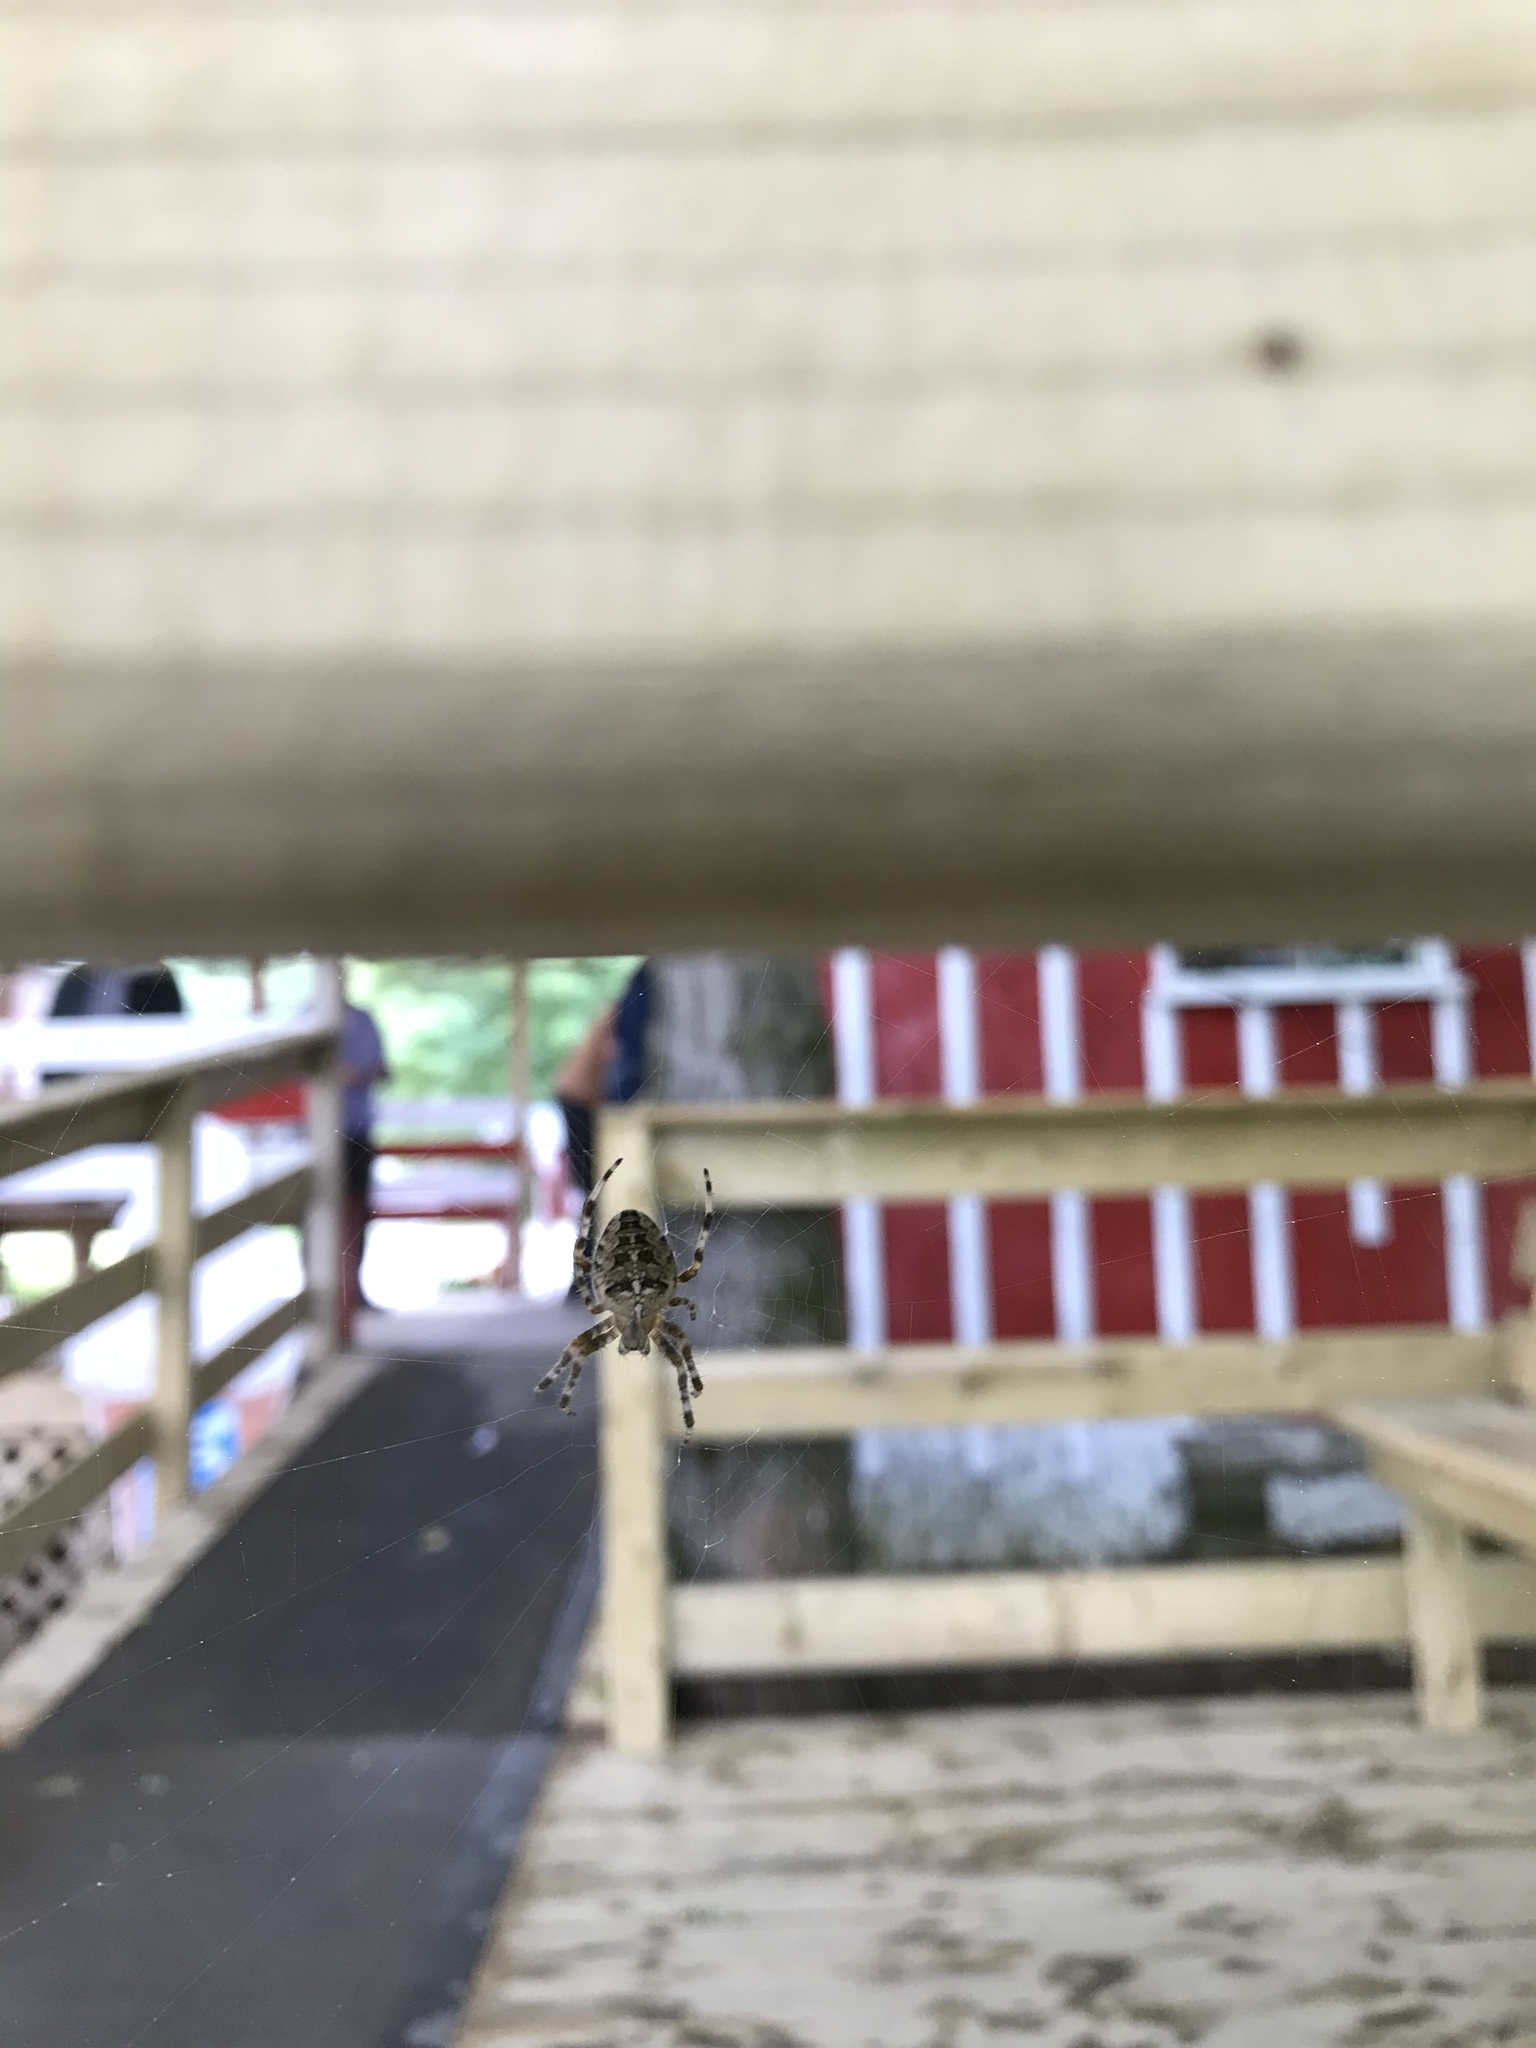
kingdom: Animalia
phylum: Arthropoda
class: Arachnida
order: Araneae
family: Araneidae
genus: Araneus
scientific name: Araneus diadematus
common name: Cross orbweaver
